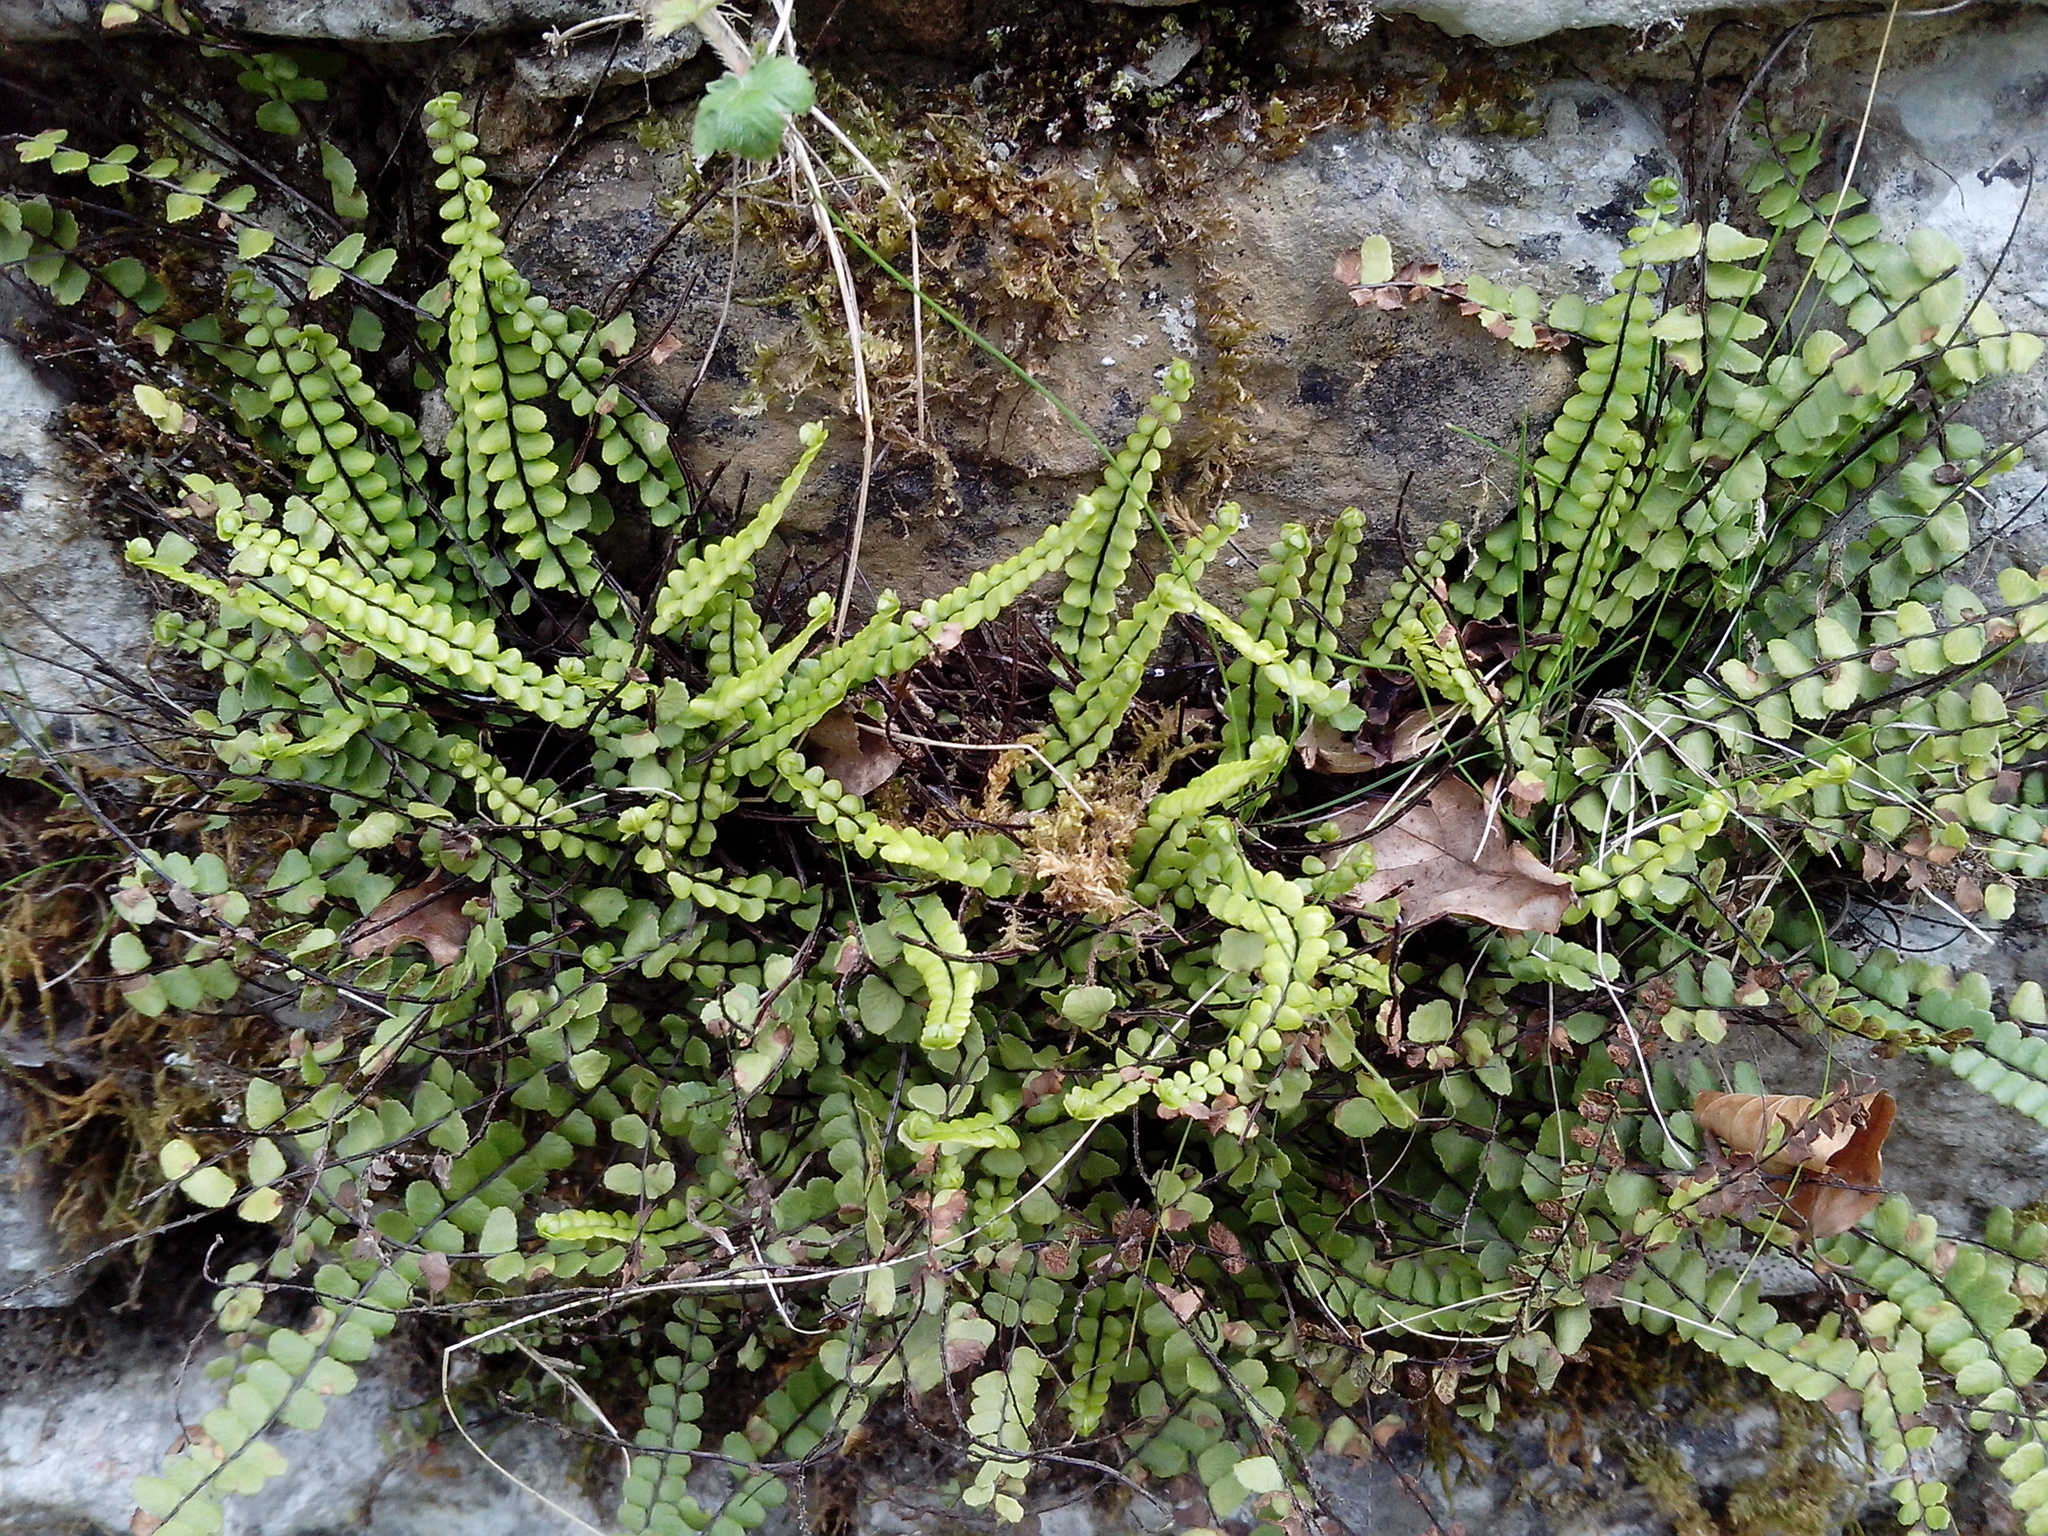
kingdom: Plantae
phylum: Tracheophyta
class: Polypodiopsida
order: Polypodiales
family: Aspleniaceae
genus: Asplenium
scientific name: Asplenium trichomanes
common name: Maidenhair spleenwort
